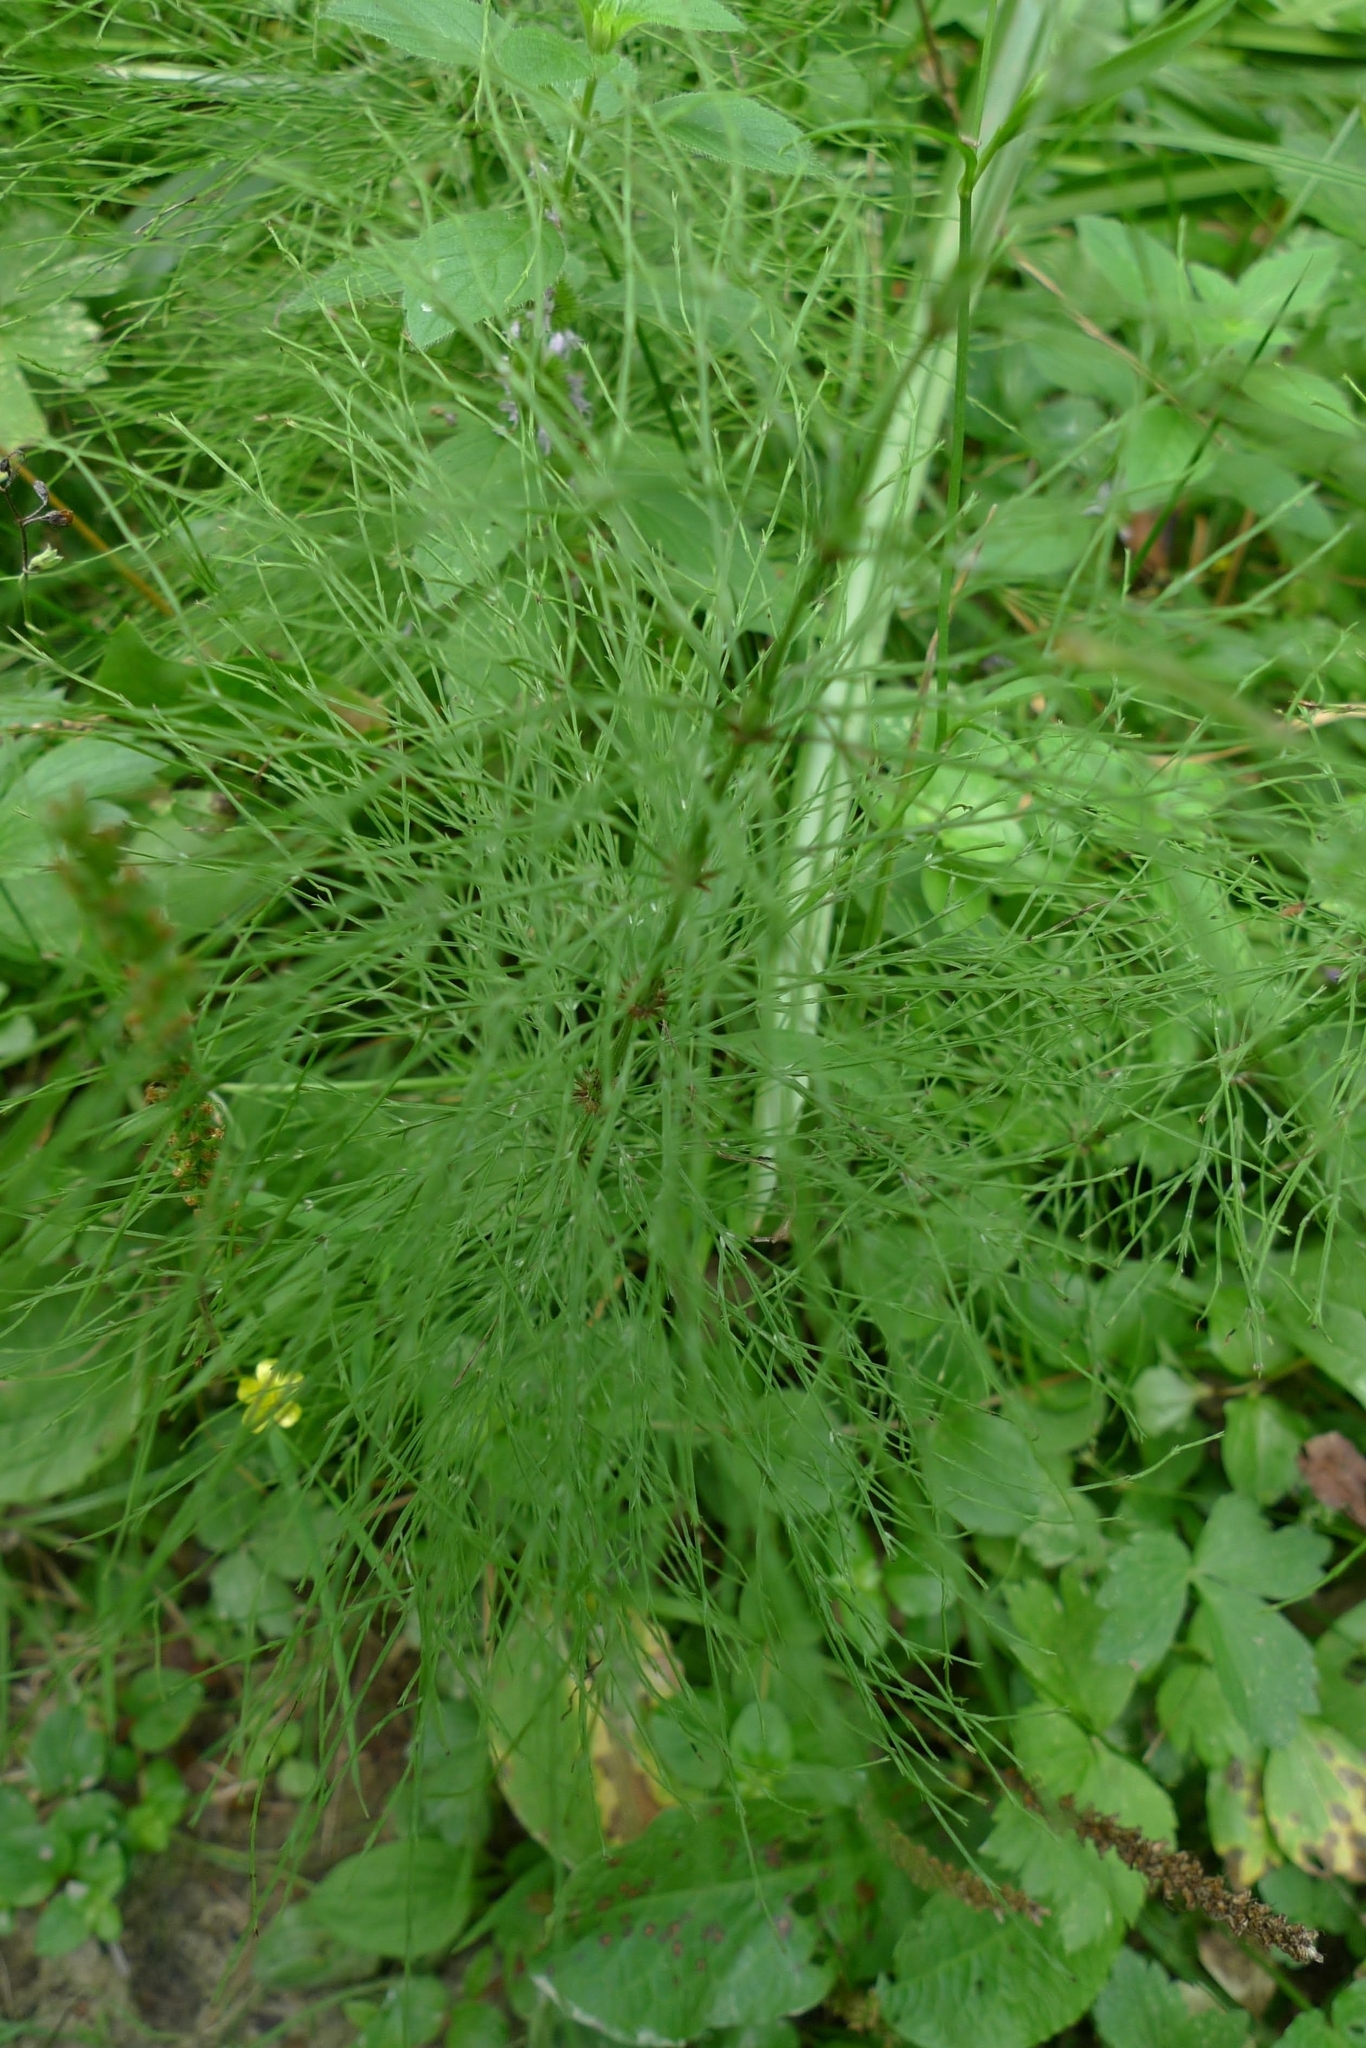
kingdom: Plantae
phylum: Tracheophyta
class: Polypodiopsida
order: Equisetales
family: Equisetaceae
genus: Equisetum
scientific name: Equisetum sylvaticum
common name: Wood horsetail
